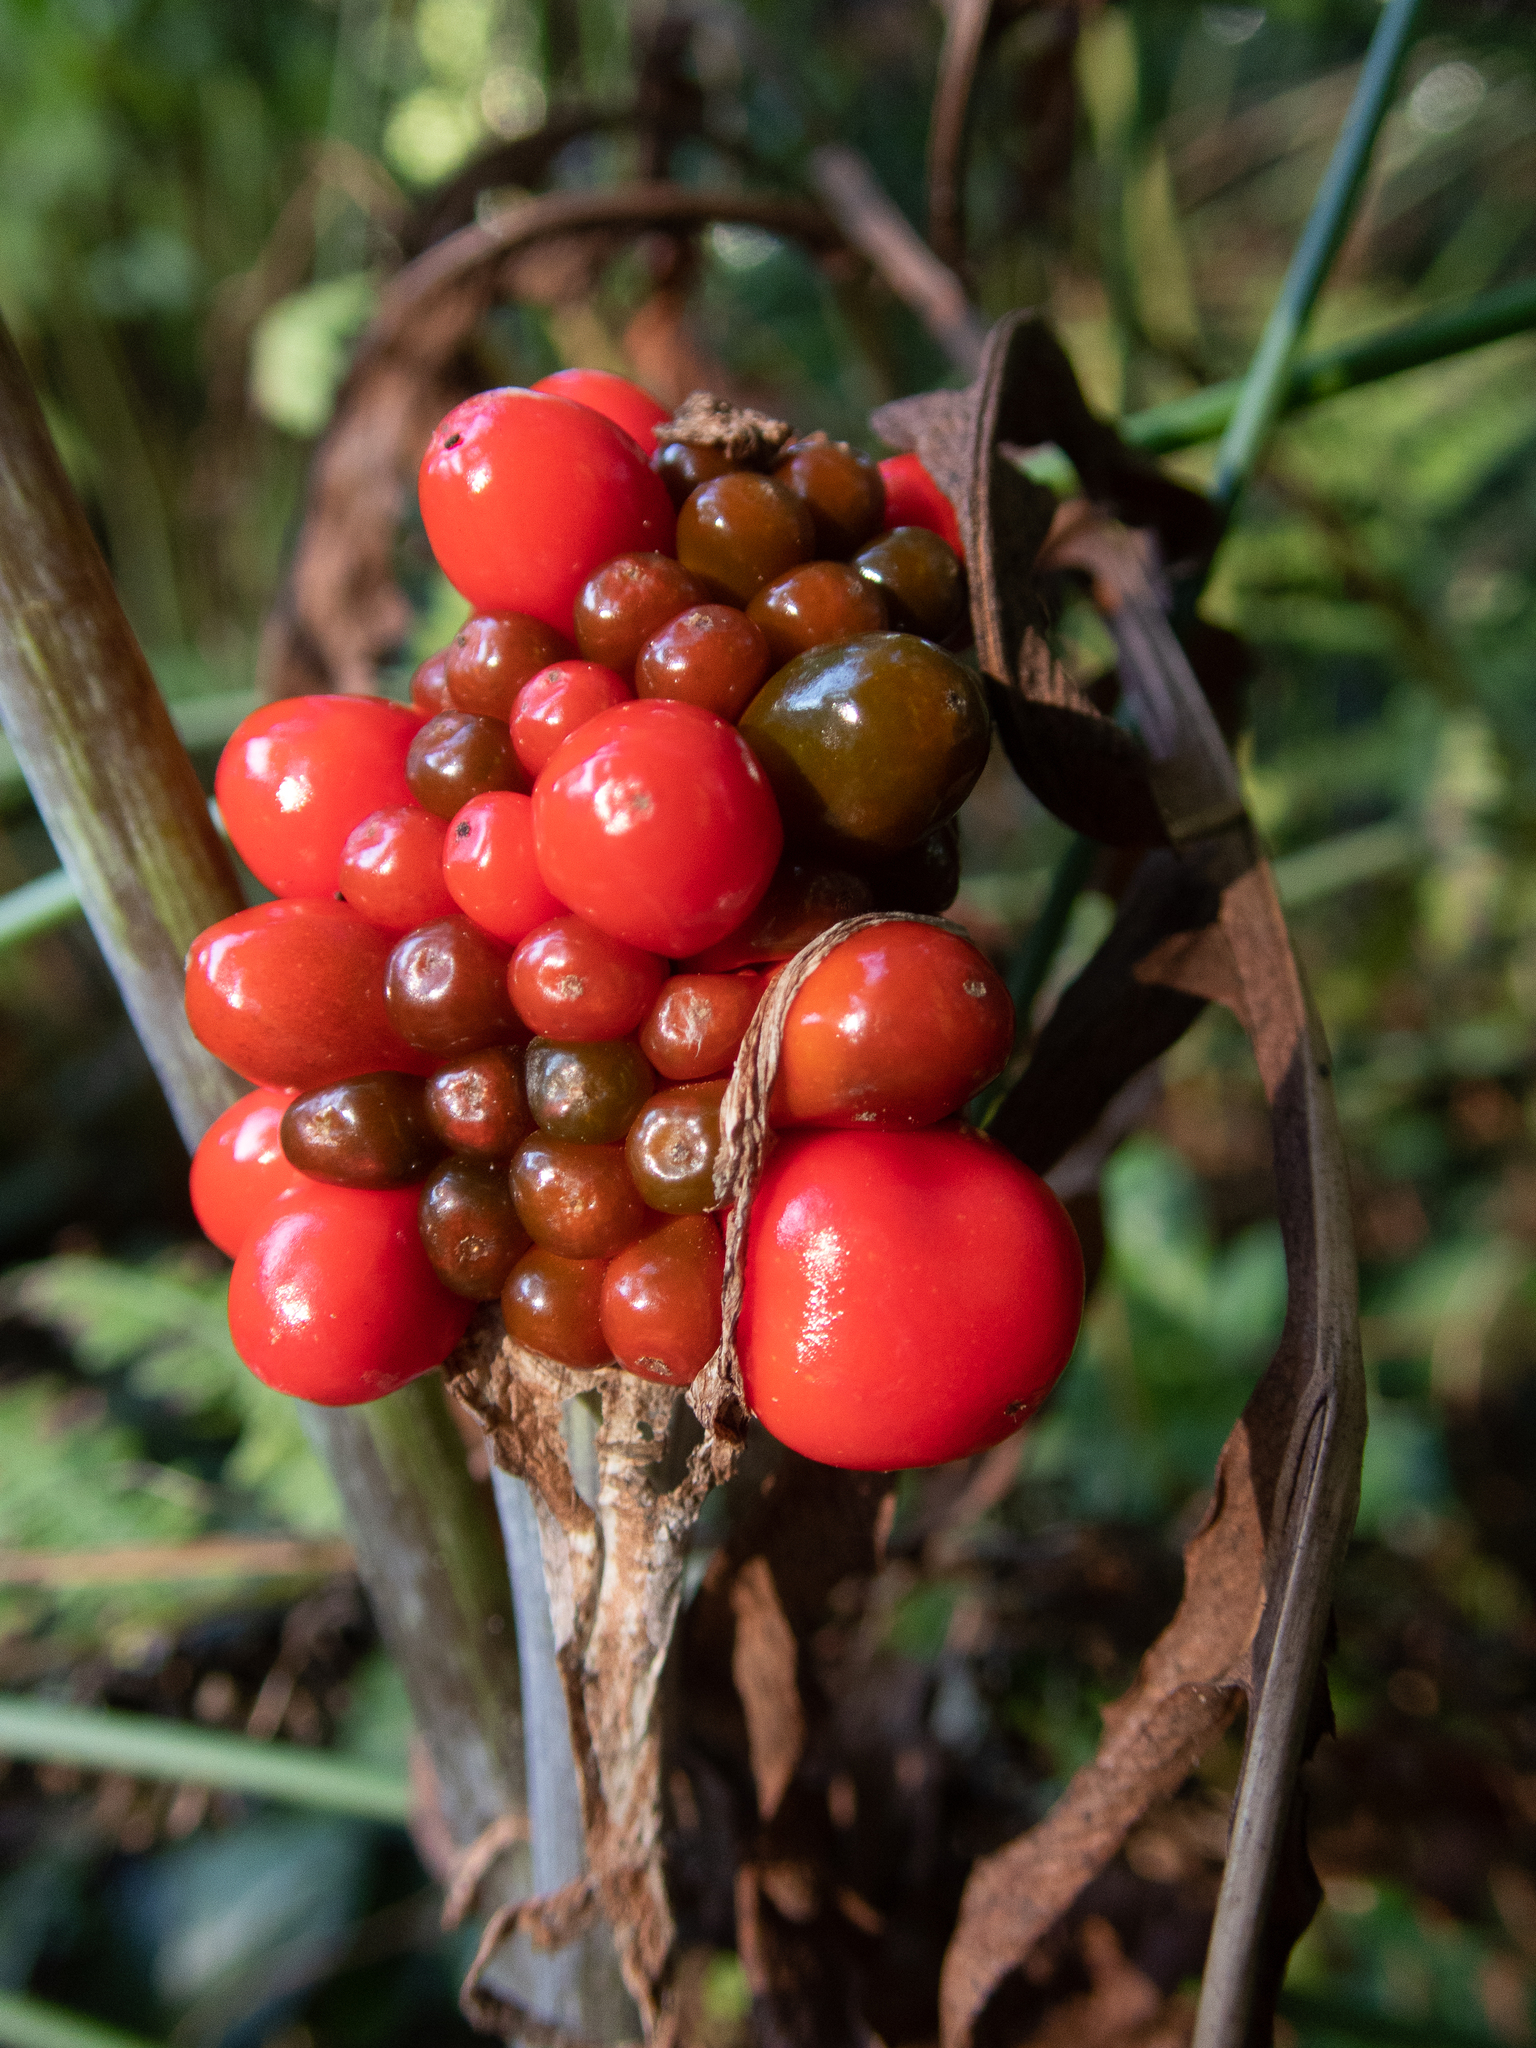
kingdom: Plantae
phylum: Tracheophyta
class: Liliopsida
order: Alismatales
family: Araceae
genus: Arisaema
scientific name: Arisaema triphyllum
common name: Jack-in-the-pulpit
